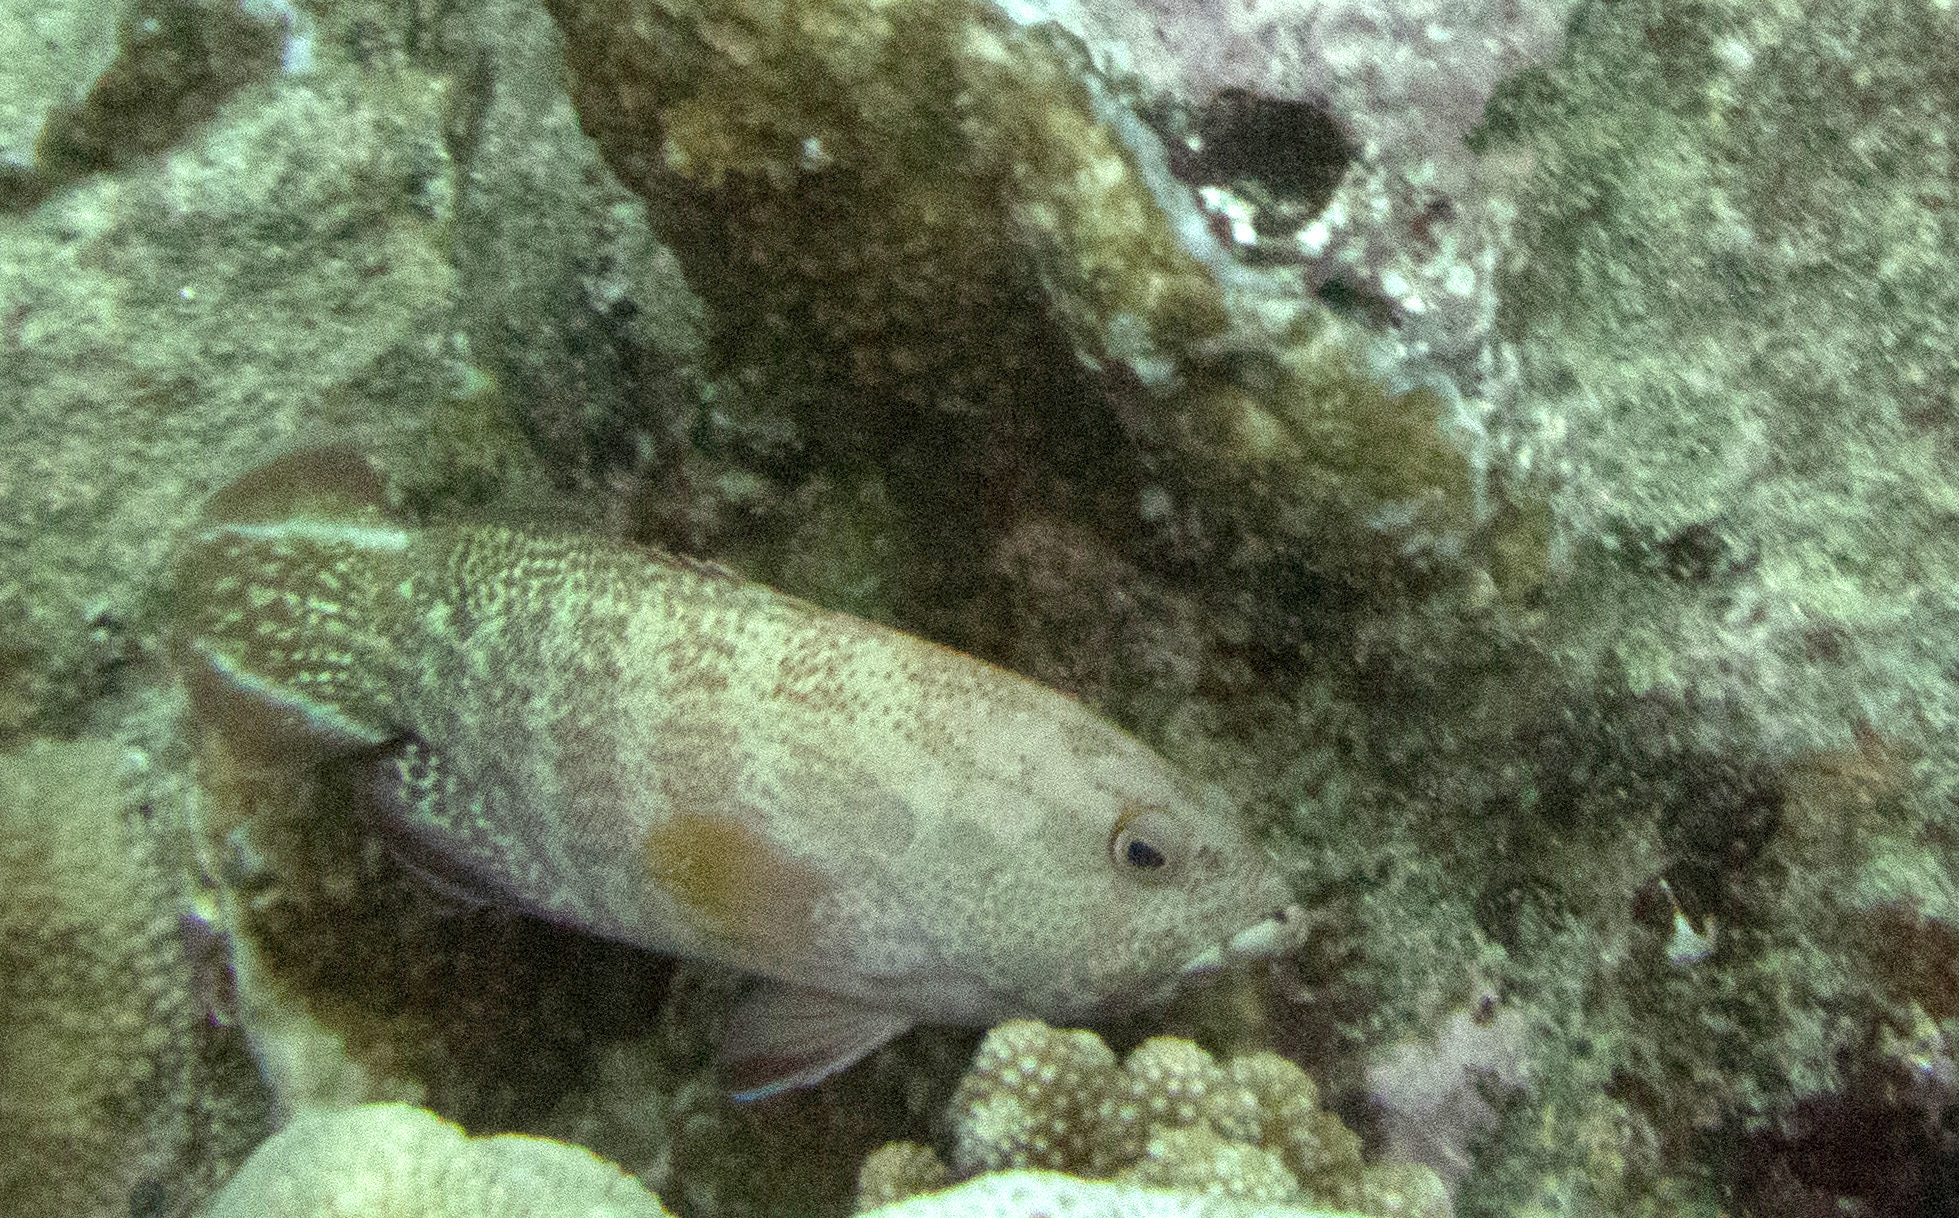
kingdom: Animalia
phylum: Chordata
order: Perciformes
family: Serranidae
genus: Cephalopholis
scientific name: Cephalopholis urodeta
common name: Darkfin hind
